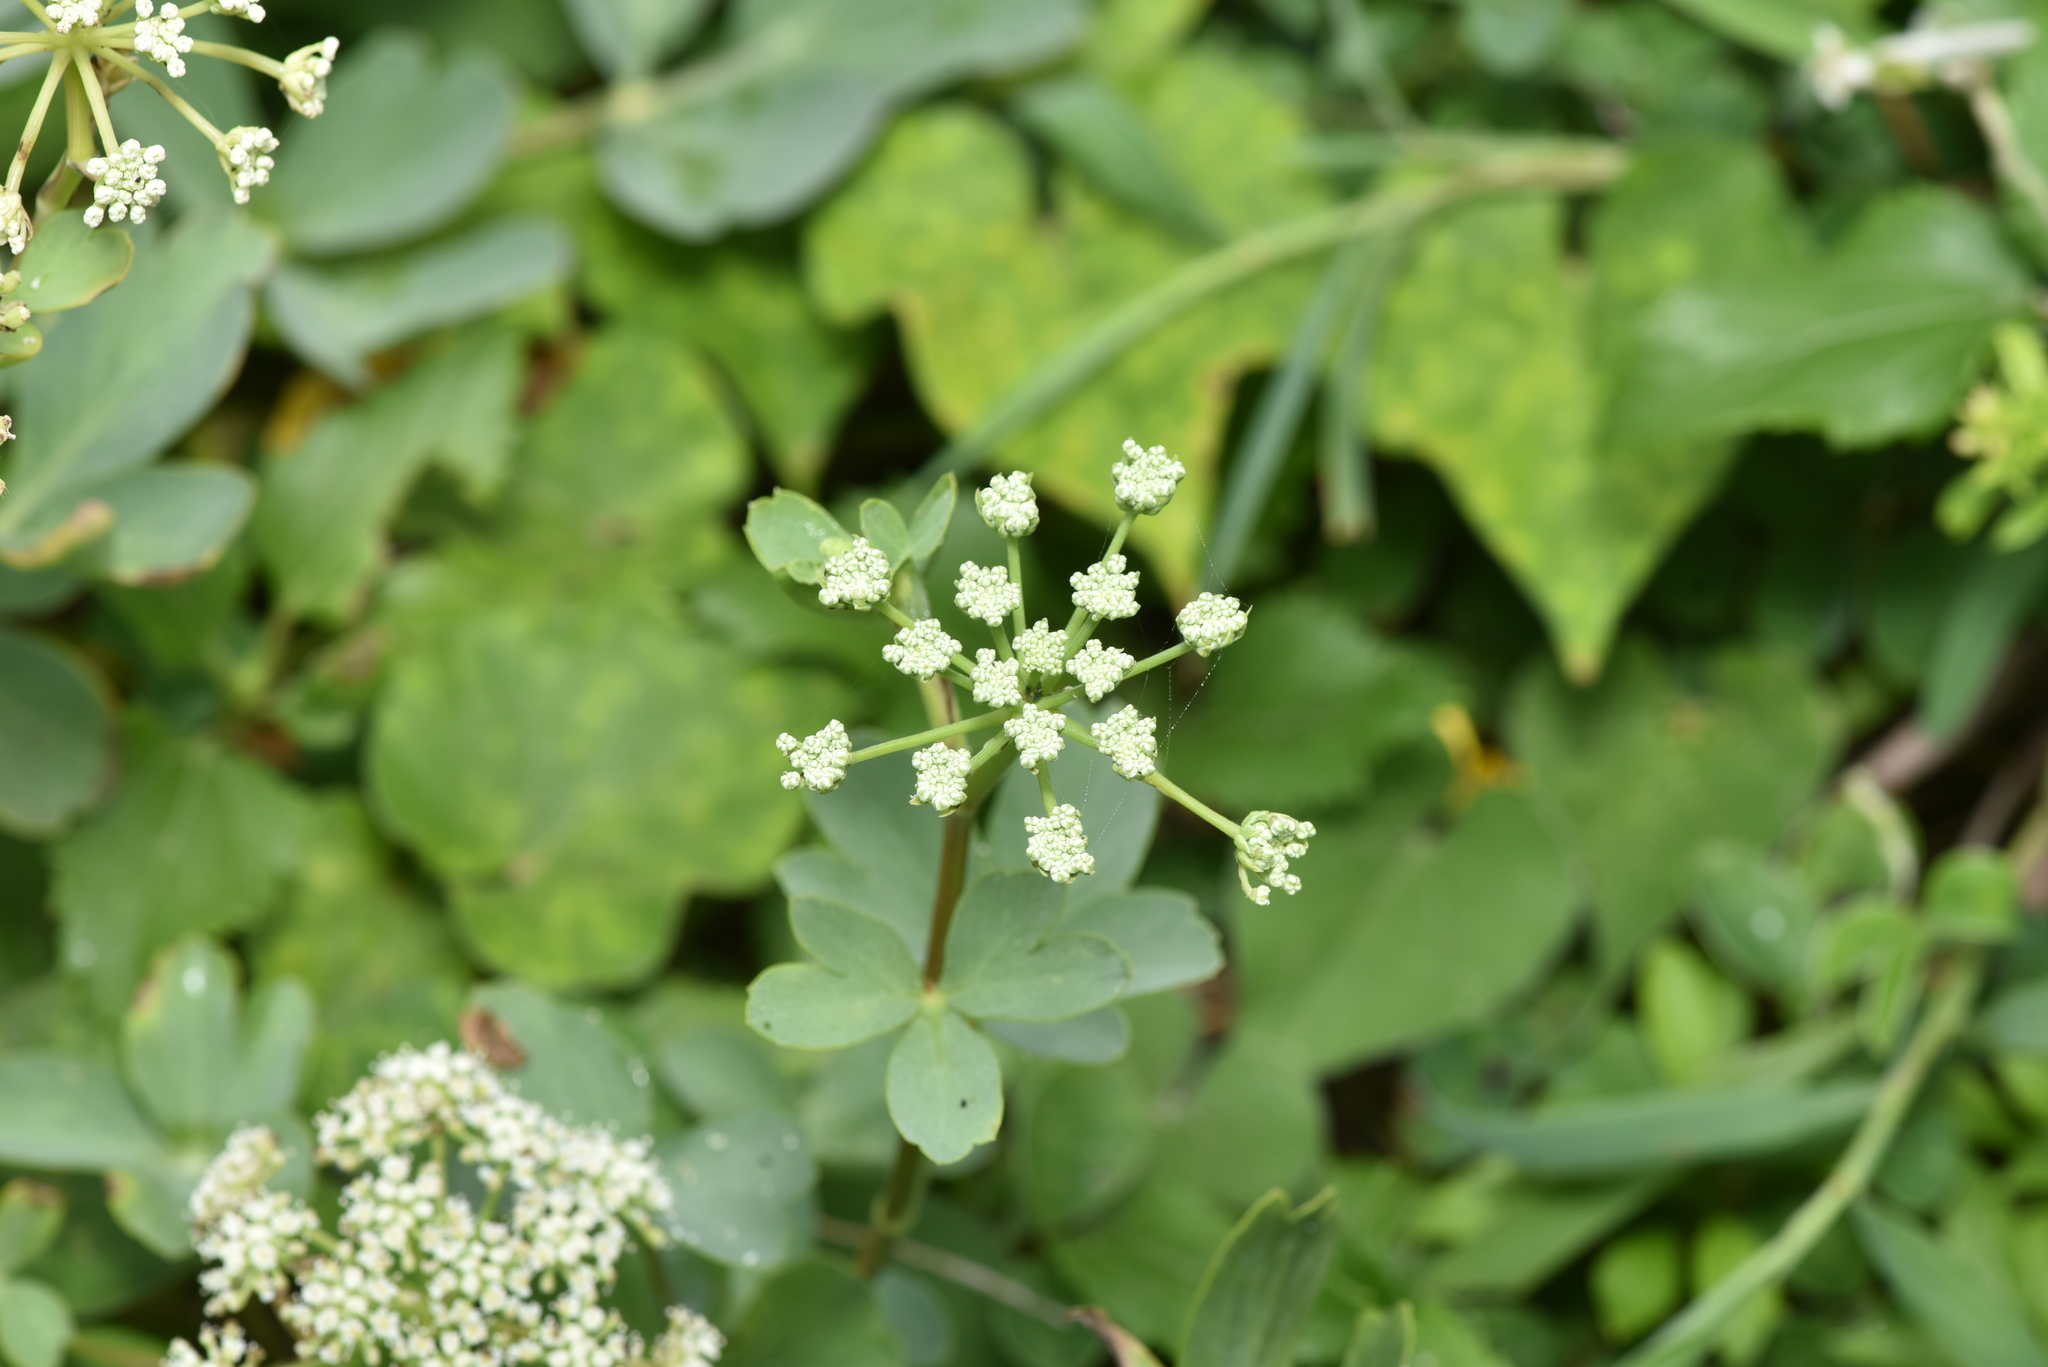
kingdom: Plantae
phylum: Tracheophyta
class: Magnoliopsida
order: Apiales
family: Apiaceae
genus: Peucedanum
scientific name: Peucedanum japonicum
